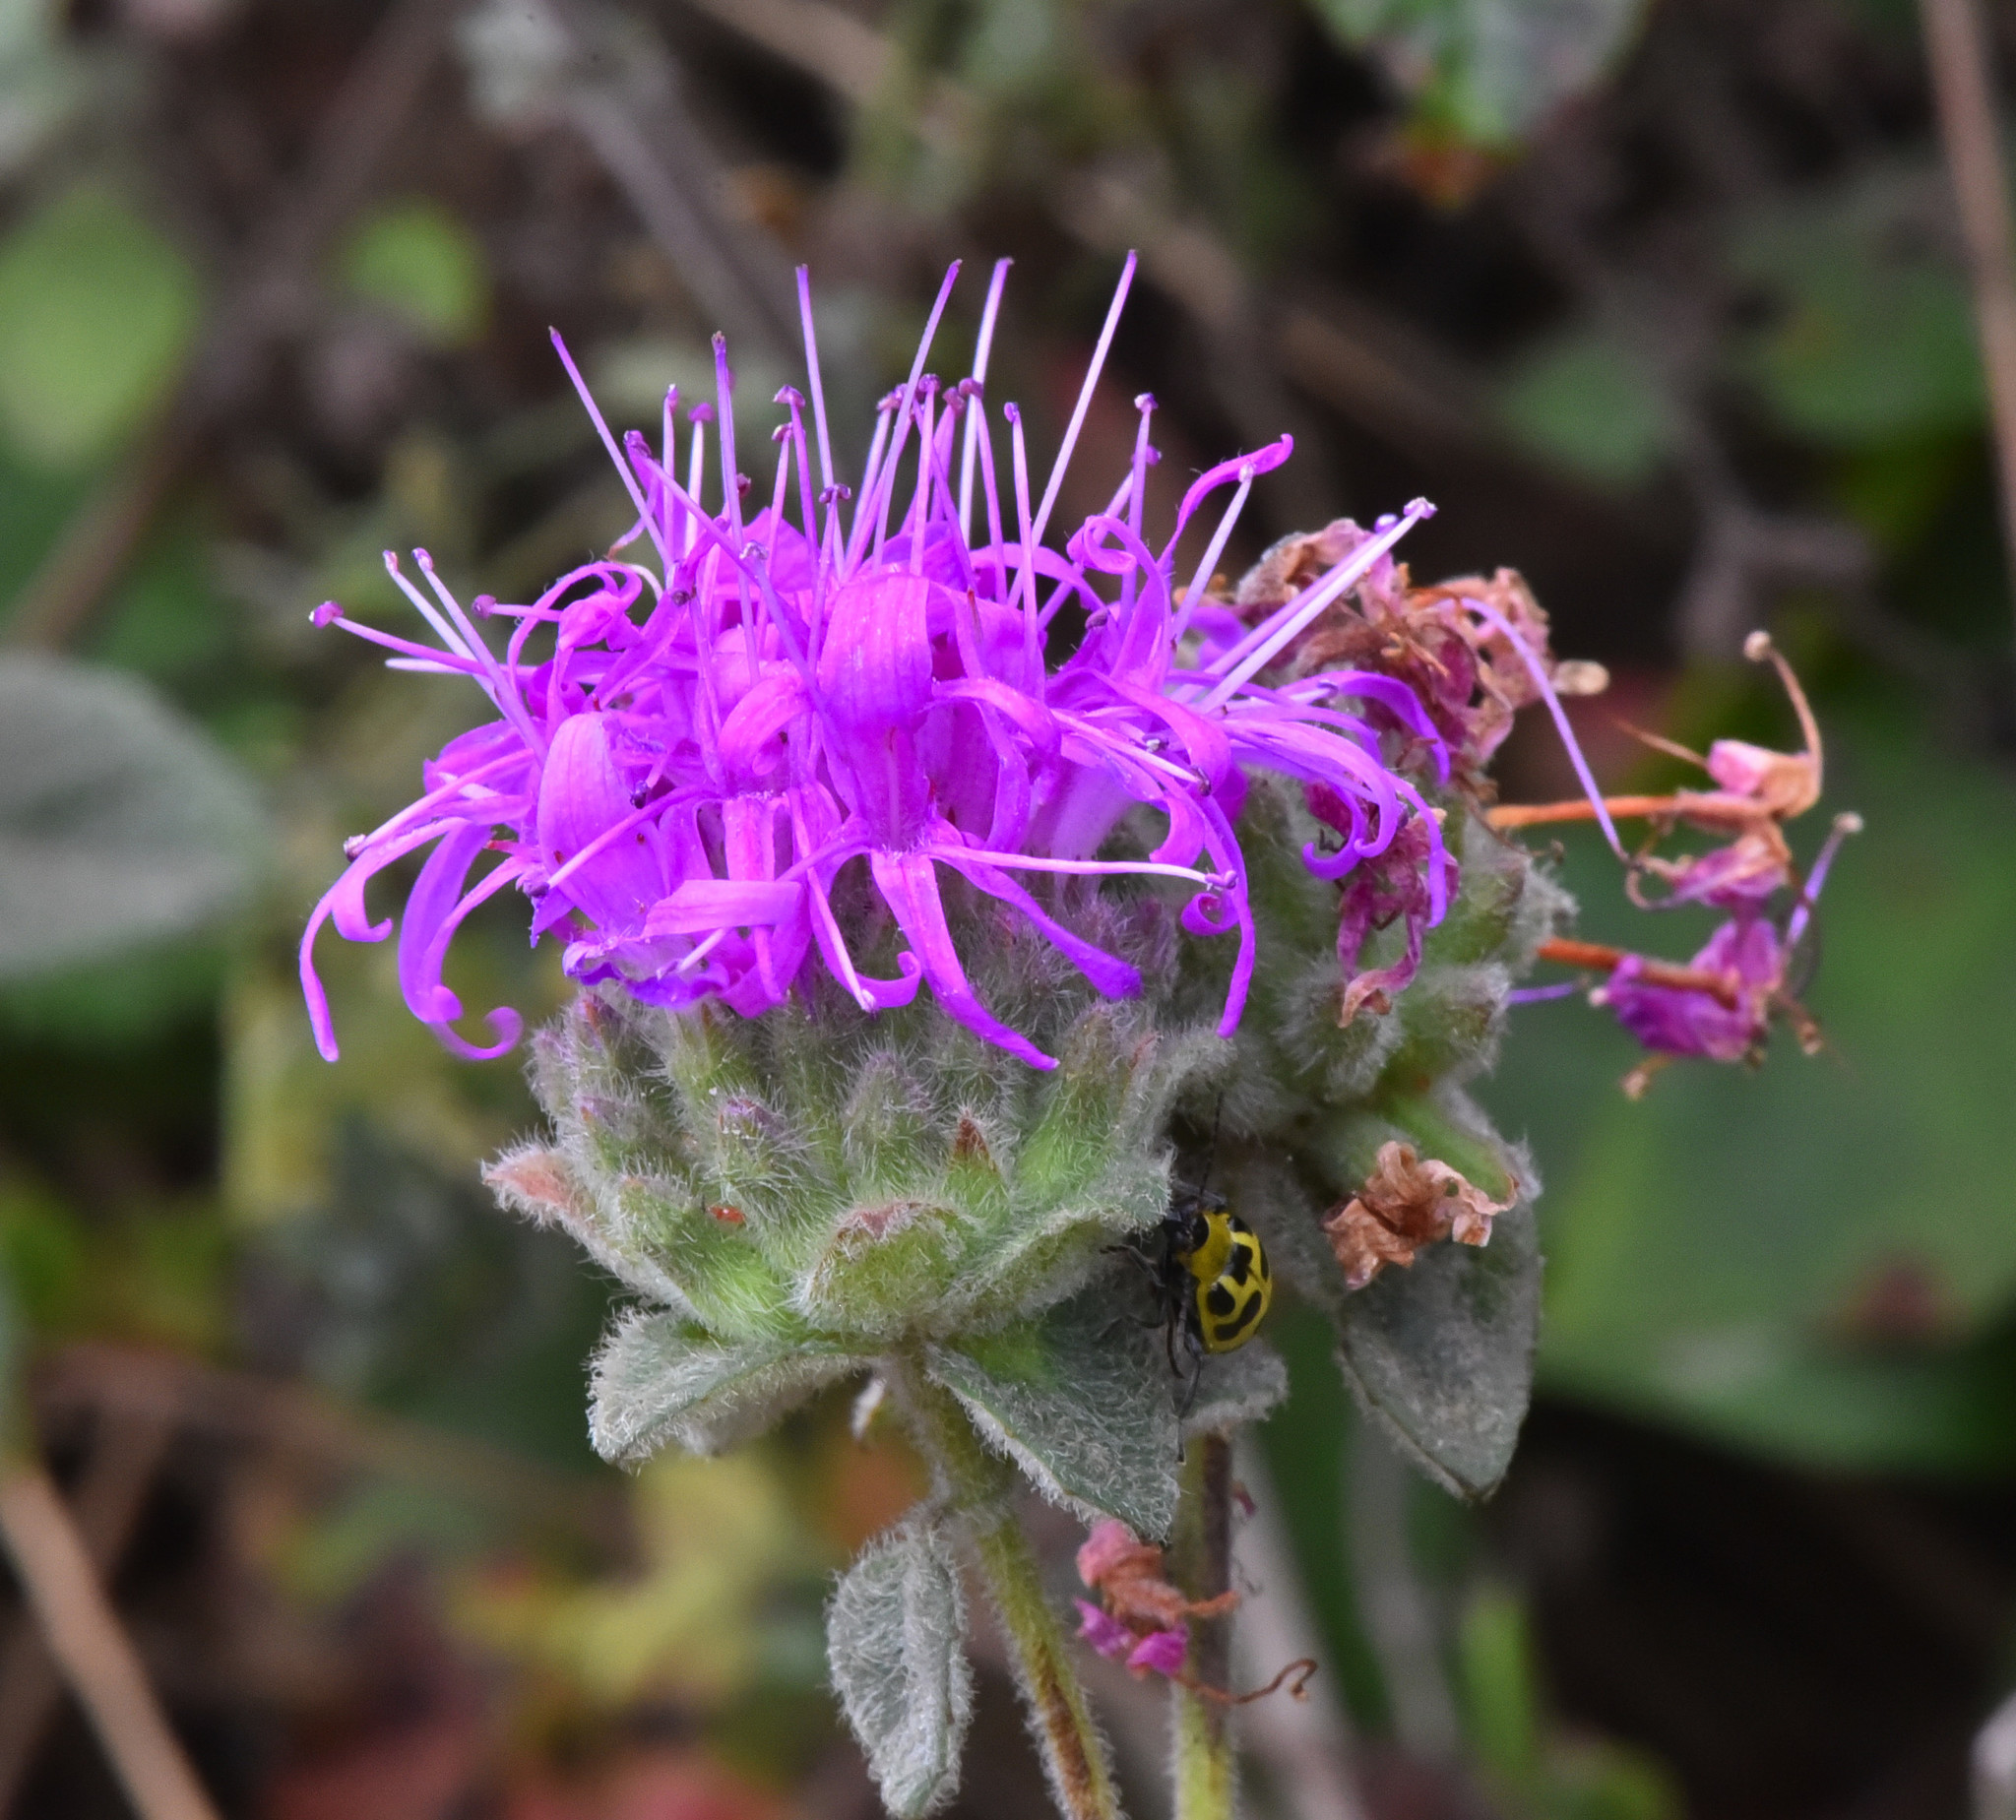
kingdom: Plantae
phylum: Tracheophyta
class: Magnoliopsida
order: Lamiales
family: Lamiaceae
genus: Monardella
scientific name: Monardella odoratissima
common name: Pacific monardella
